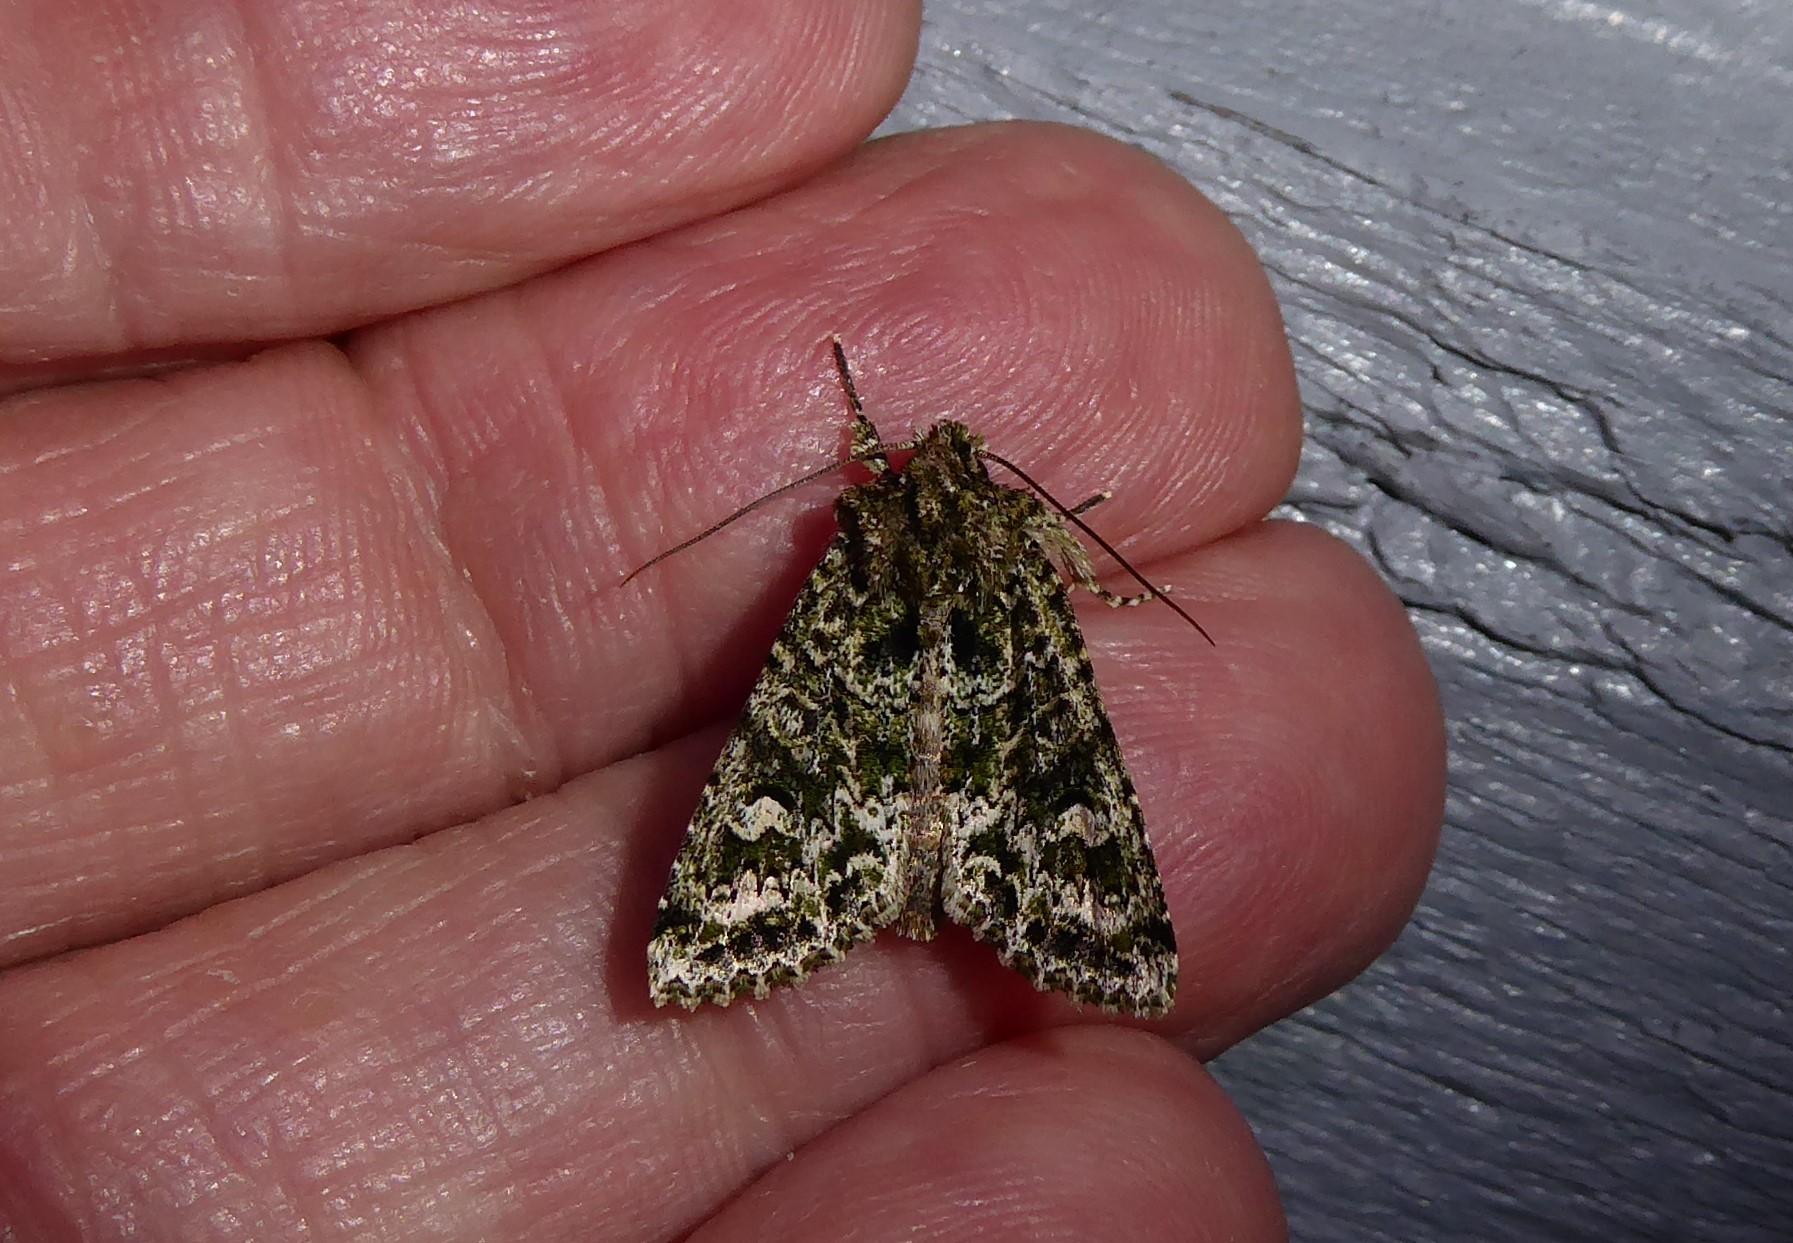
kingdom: Animalia
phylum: Arthropoda
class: Insecta
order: Lepidoptera
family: Noctuidae
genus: Ichneutica
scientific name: Ichneutica
